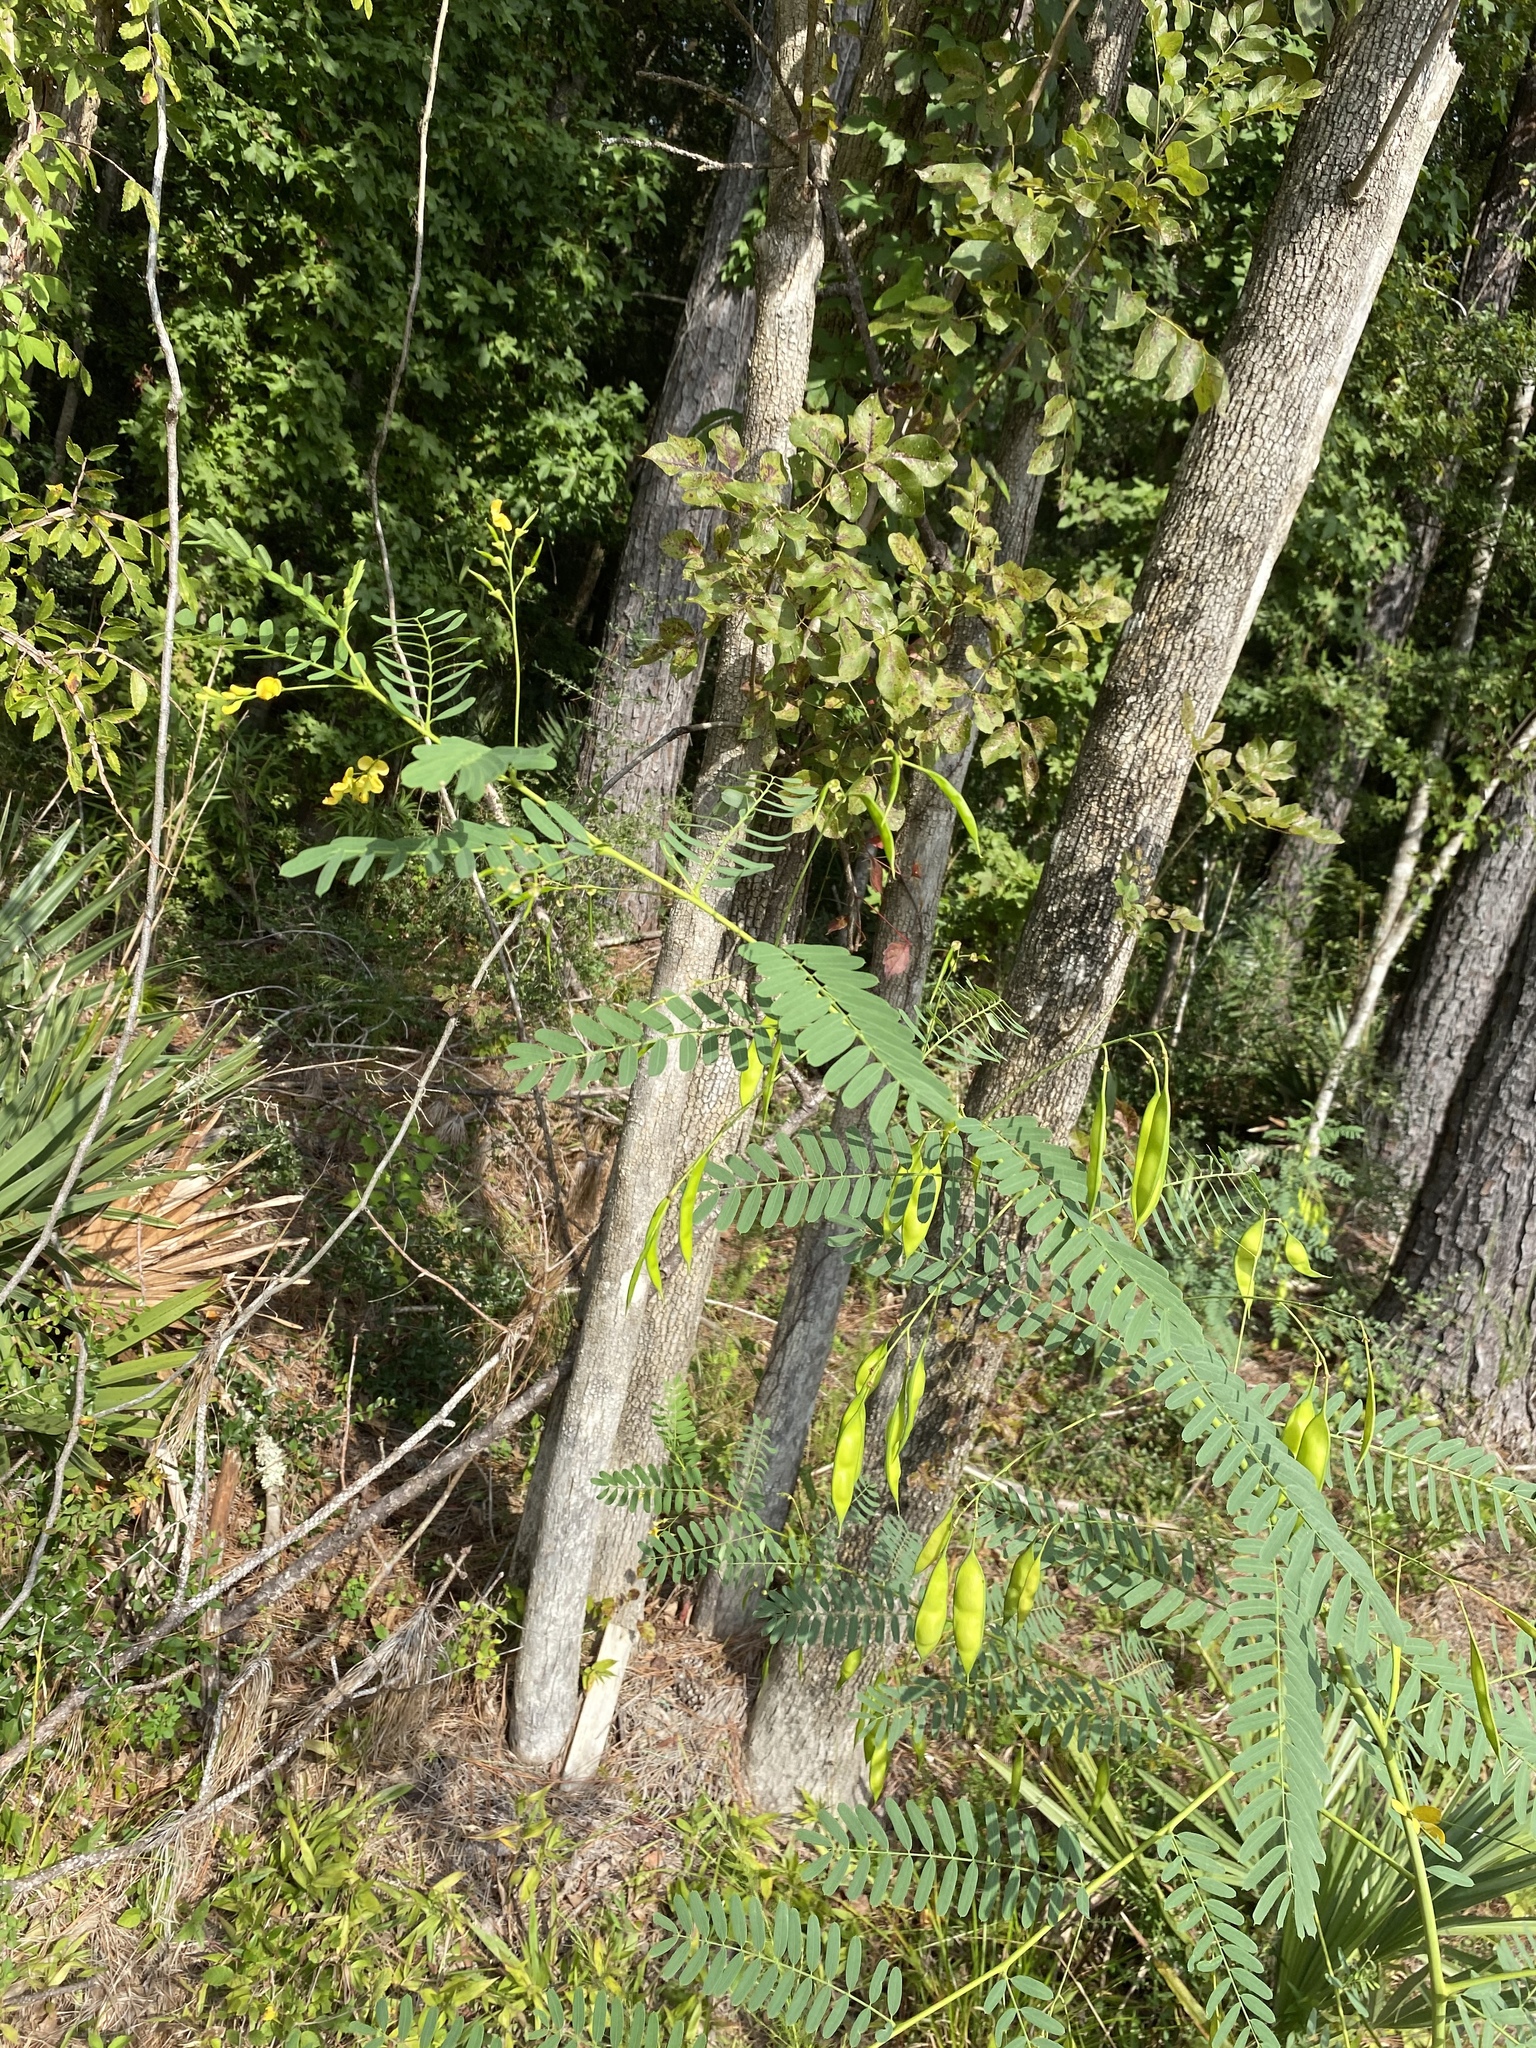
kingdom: Plantae
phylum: Tracheophyta
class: Magnoliopsida
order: Fabales
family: Fabaceae
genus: Sesbania
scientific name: Sesbania vesicaria
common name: Bagpod
